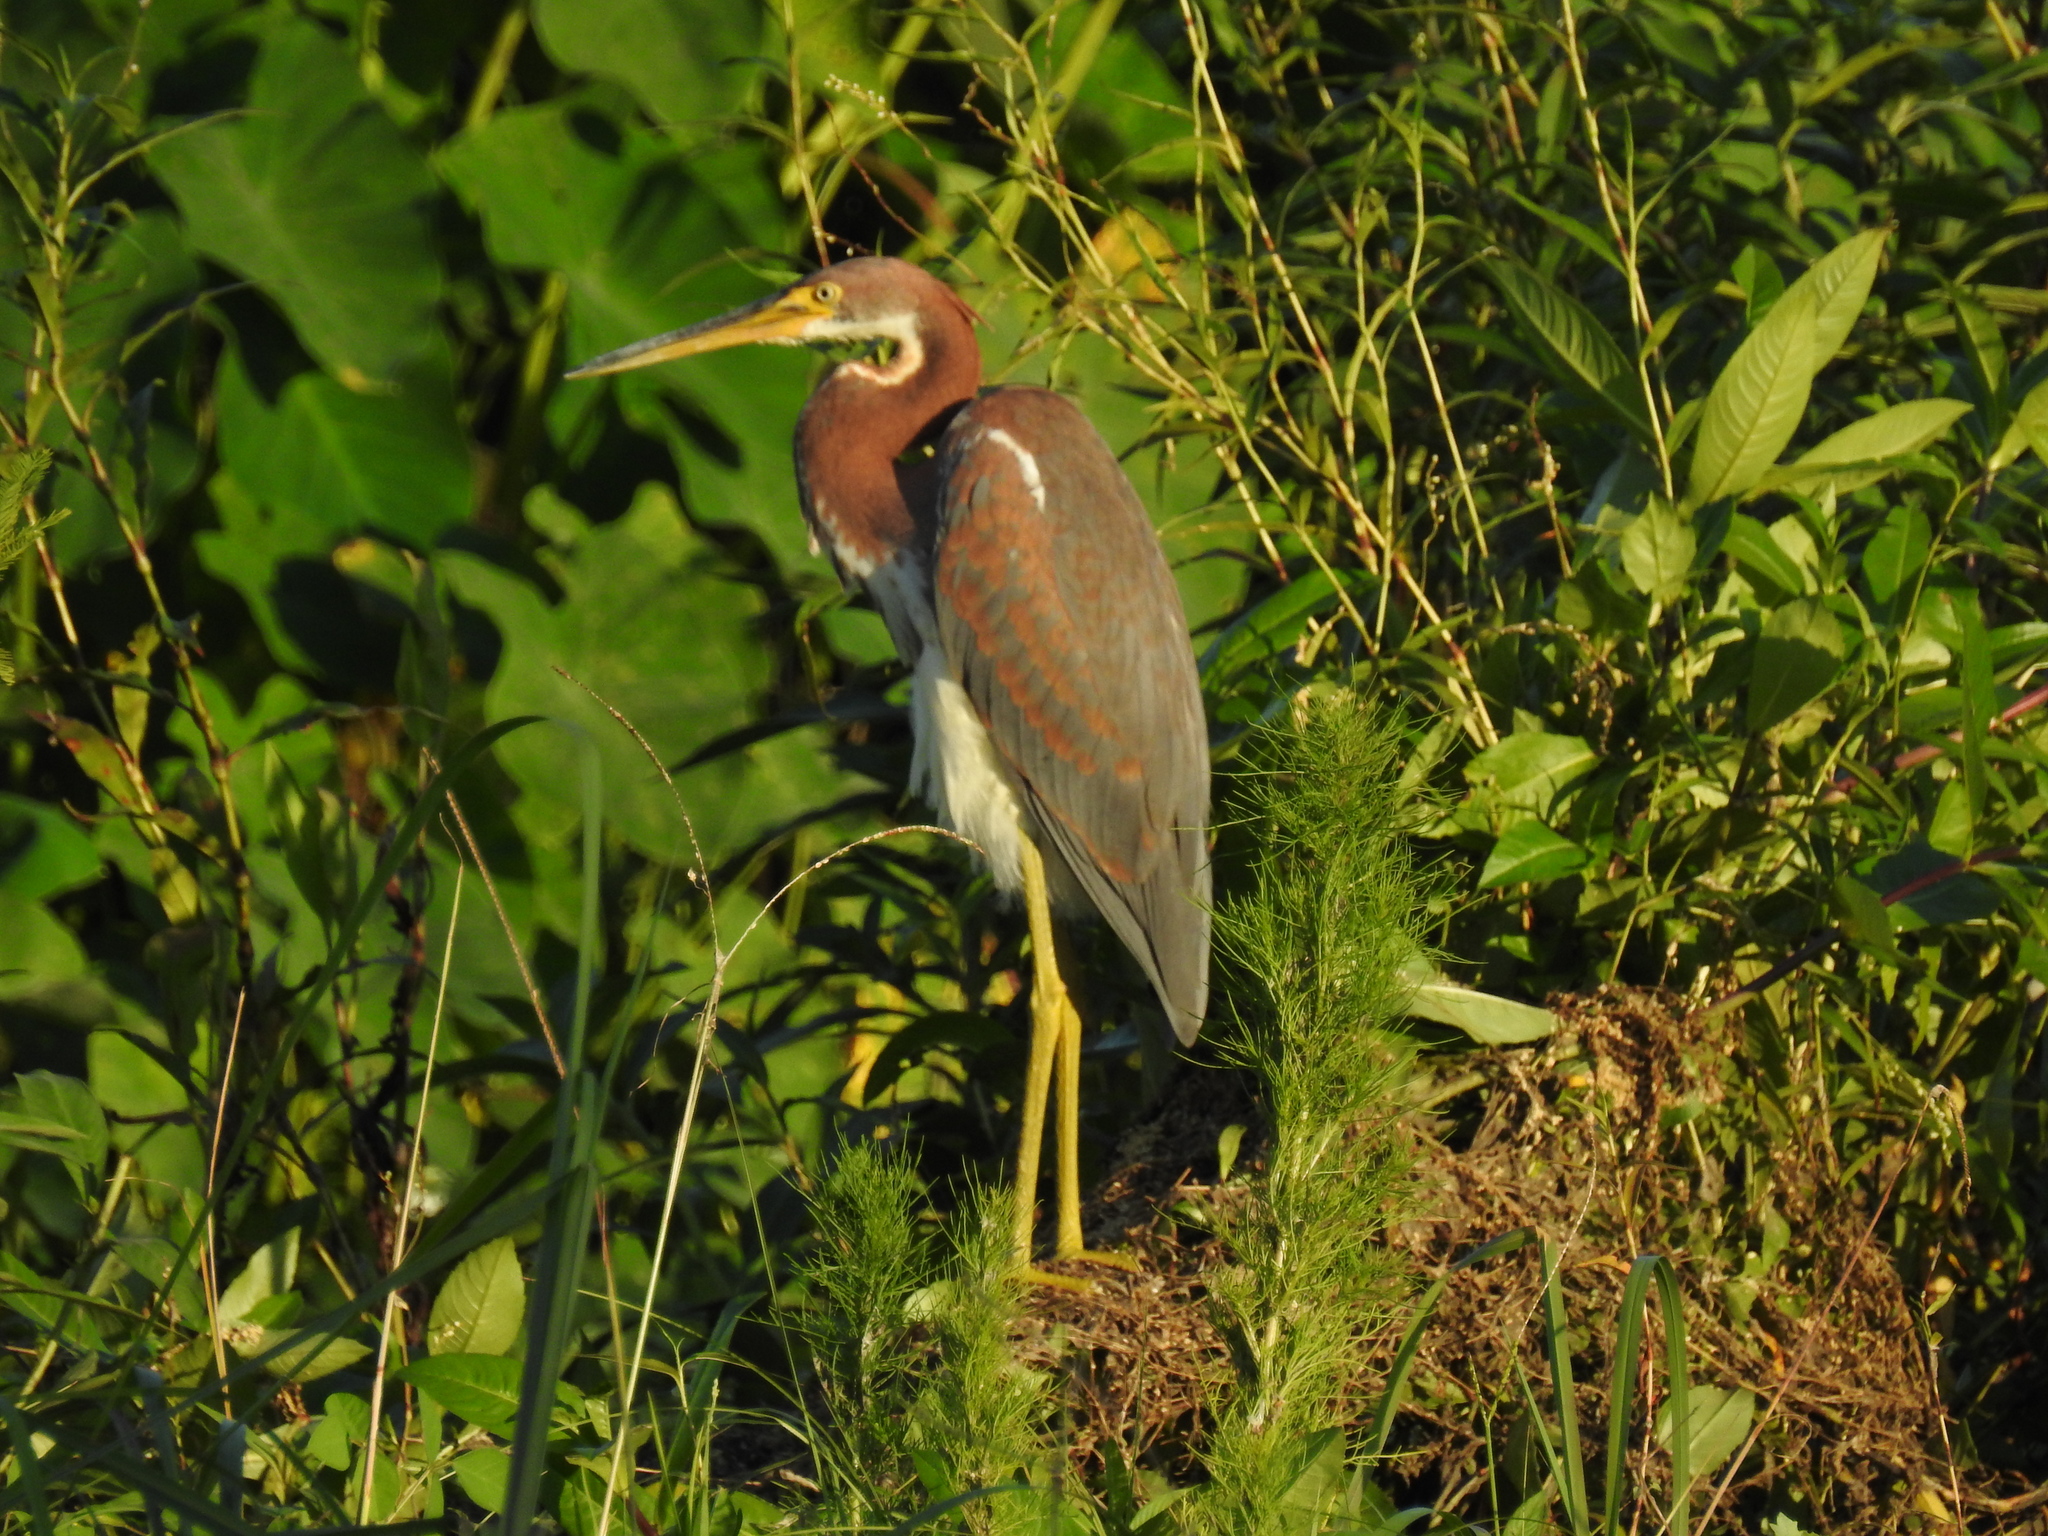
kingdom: Animalia
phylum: Chordata
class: Aves
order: Pelecaniformes
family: Ardeidae
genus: Egretta
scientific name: Egretta tricolor
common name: Tricolored heron
